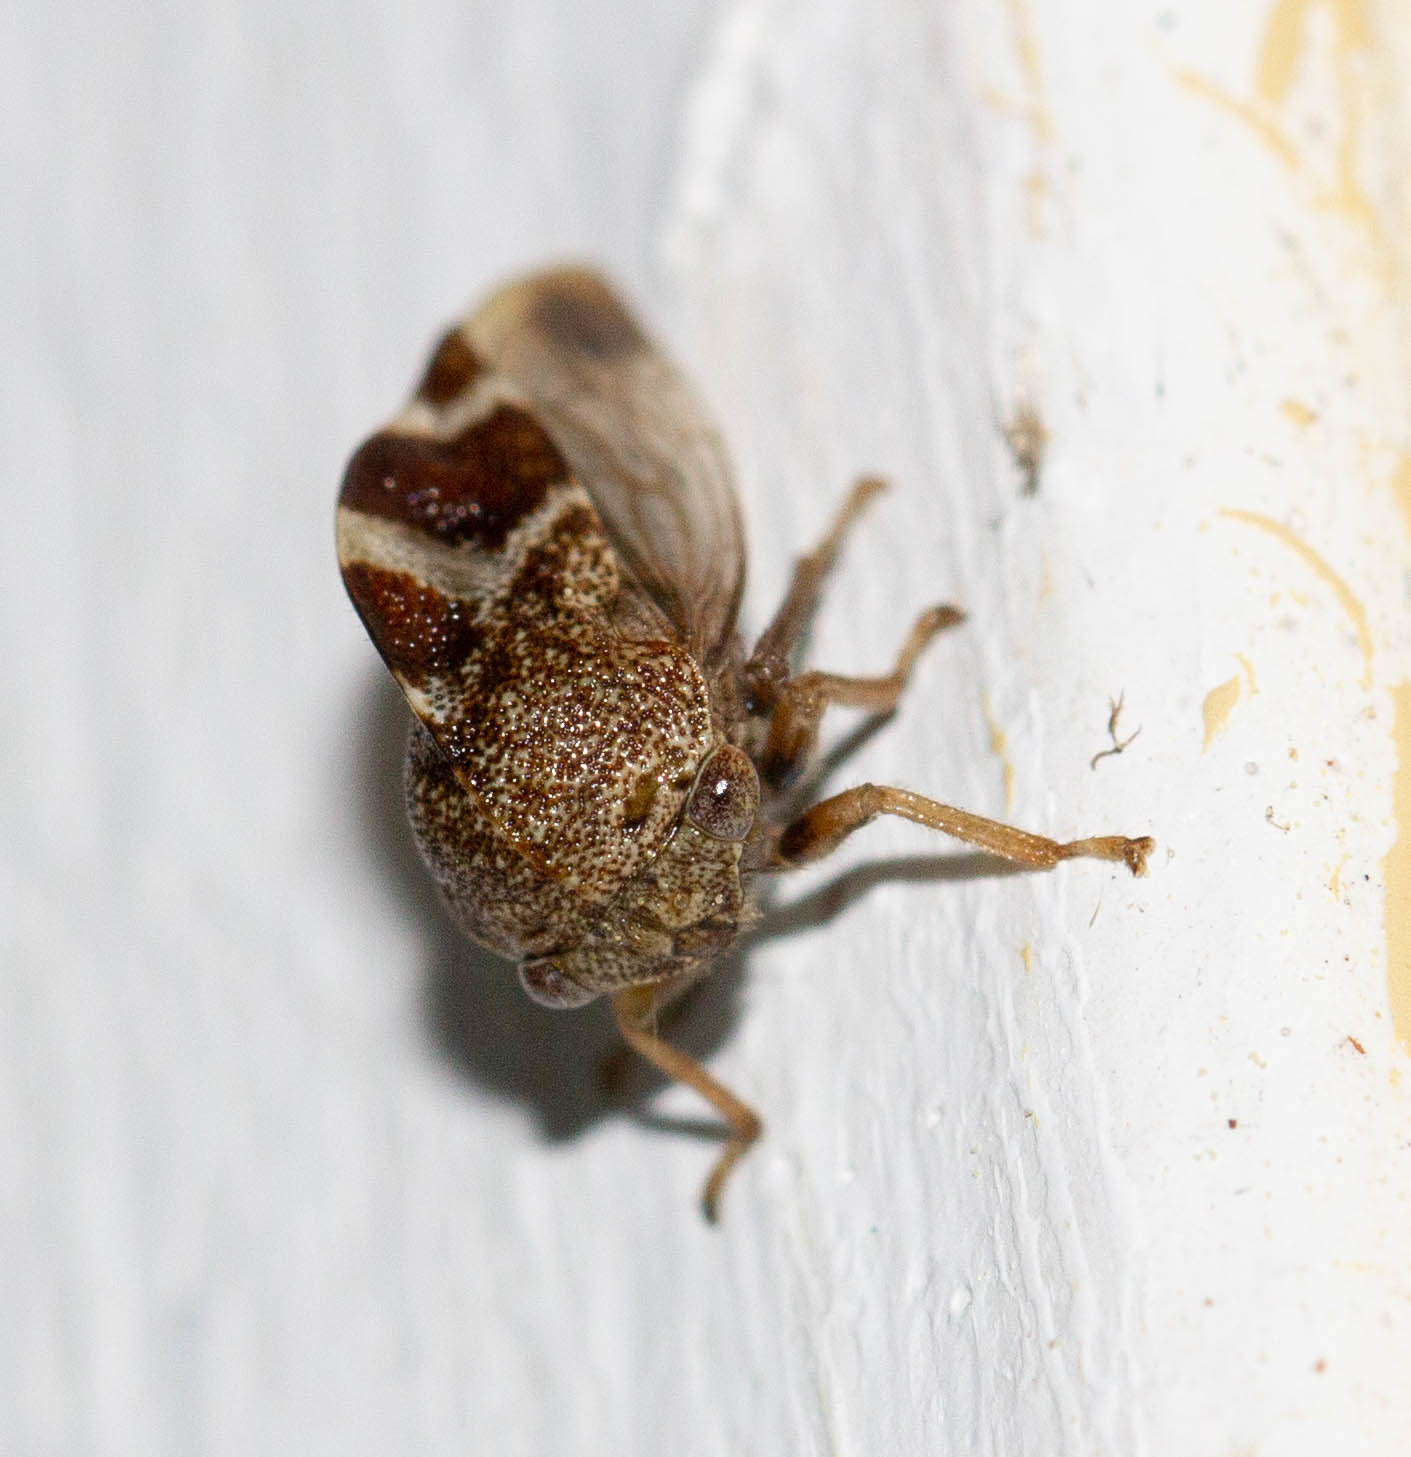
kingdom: Animalia
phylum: Arthropoda
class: Insecta
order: Hemiptera
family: Membracidae
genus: Cyrtolobus
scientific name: Cyrtolobus tuberosa
